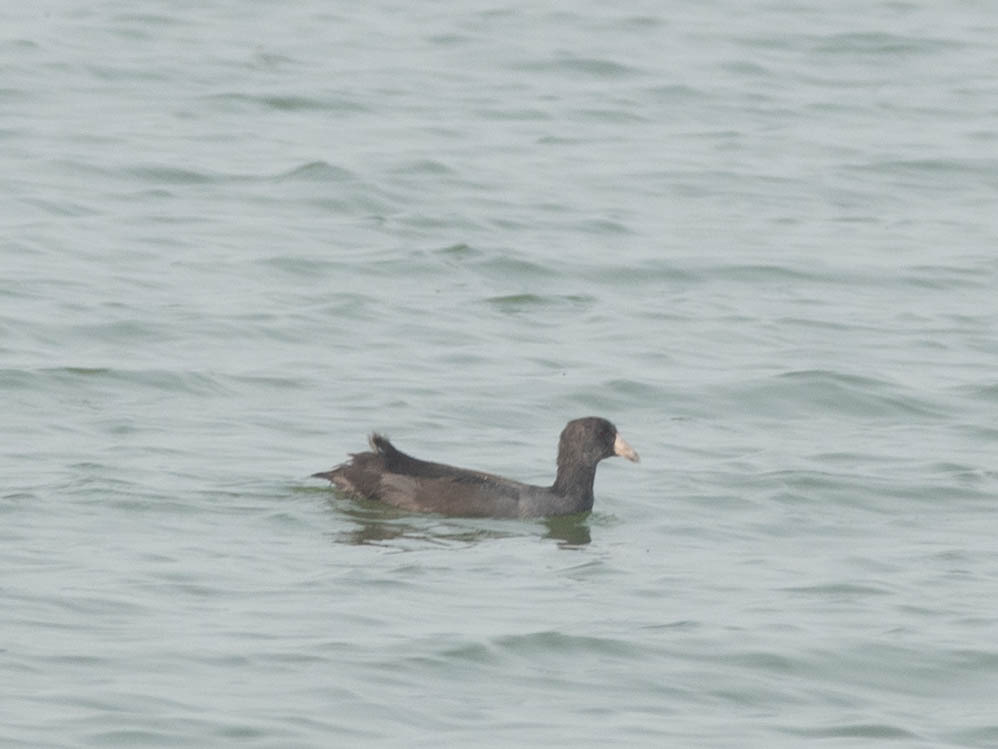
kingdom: Animalia
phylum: Chordata
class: Aves
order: Gruiformes
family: Rallidae
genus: Fulica
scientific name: Fulica americana
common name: American coot
